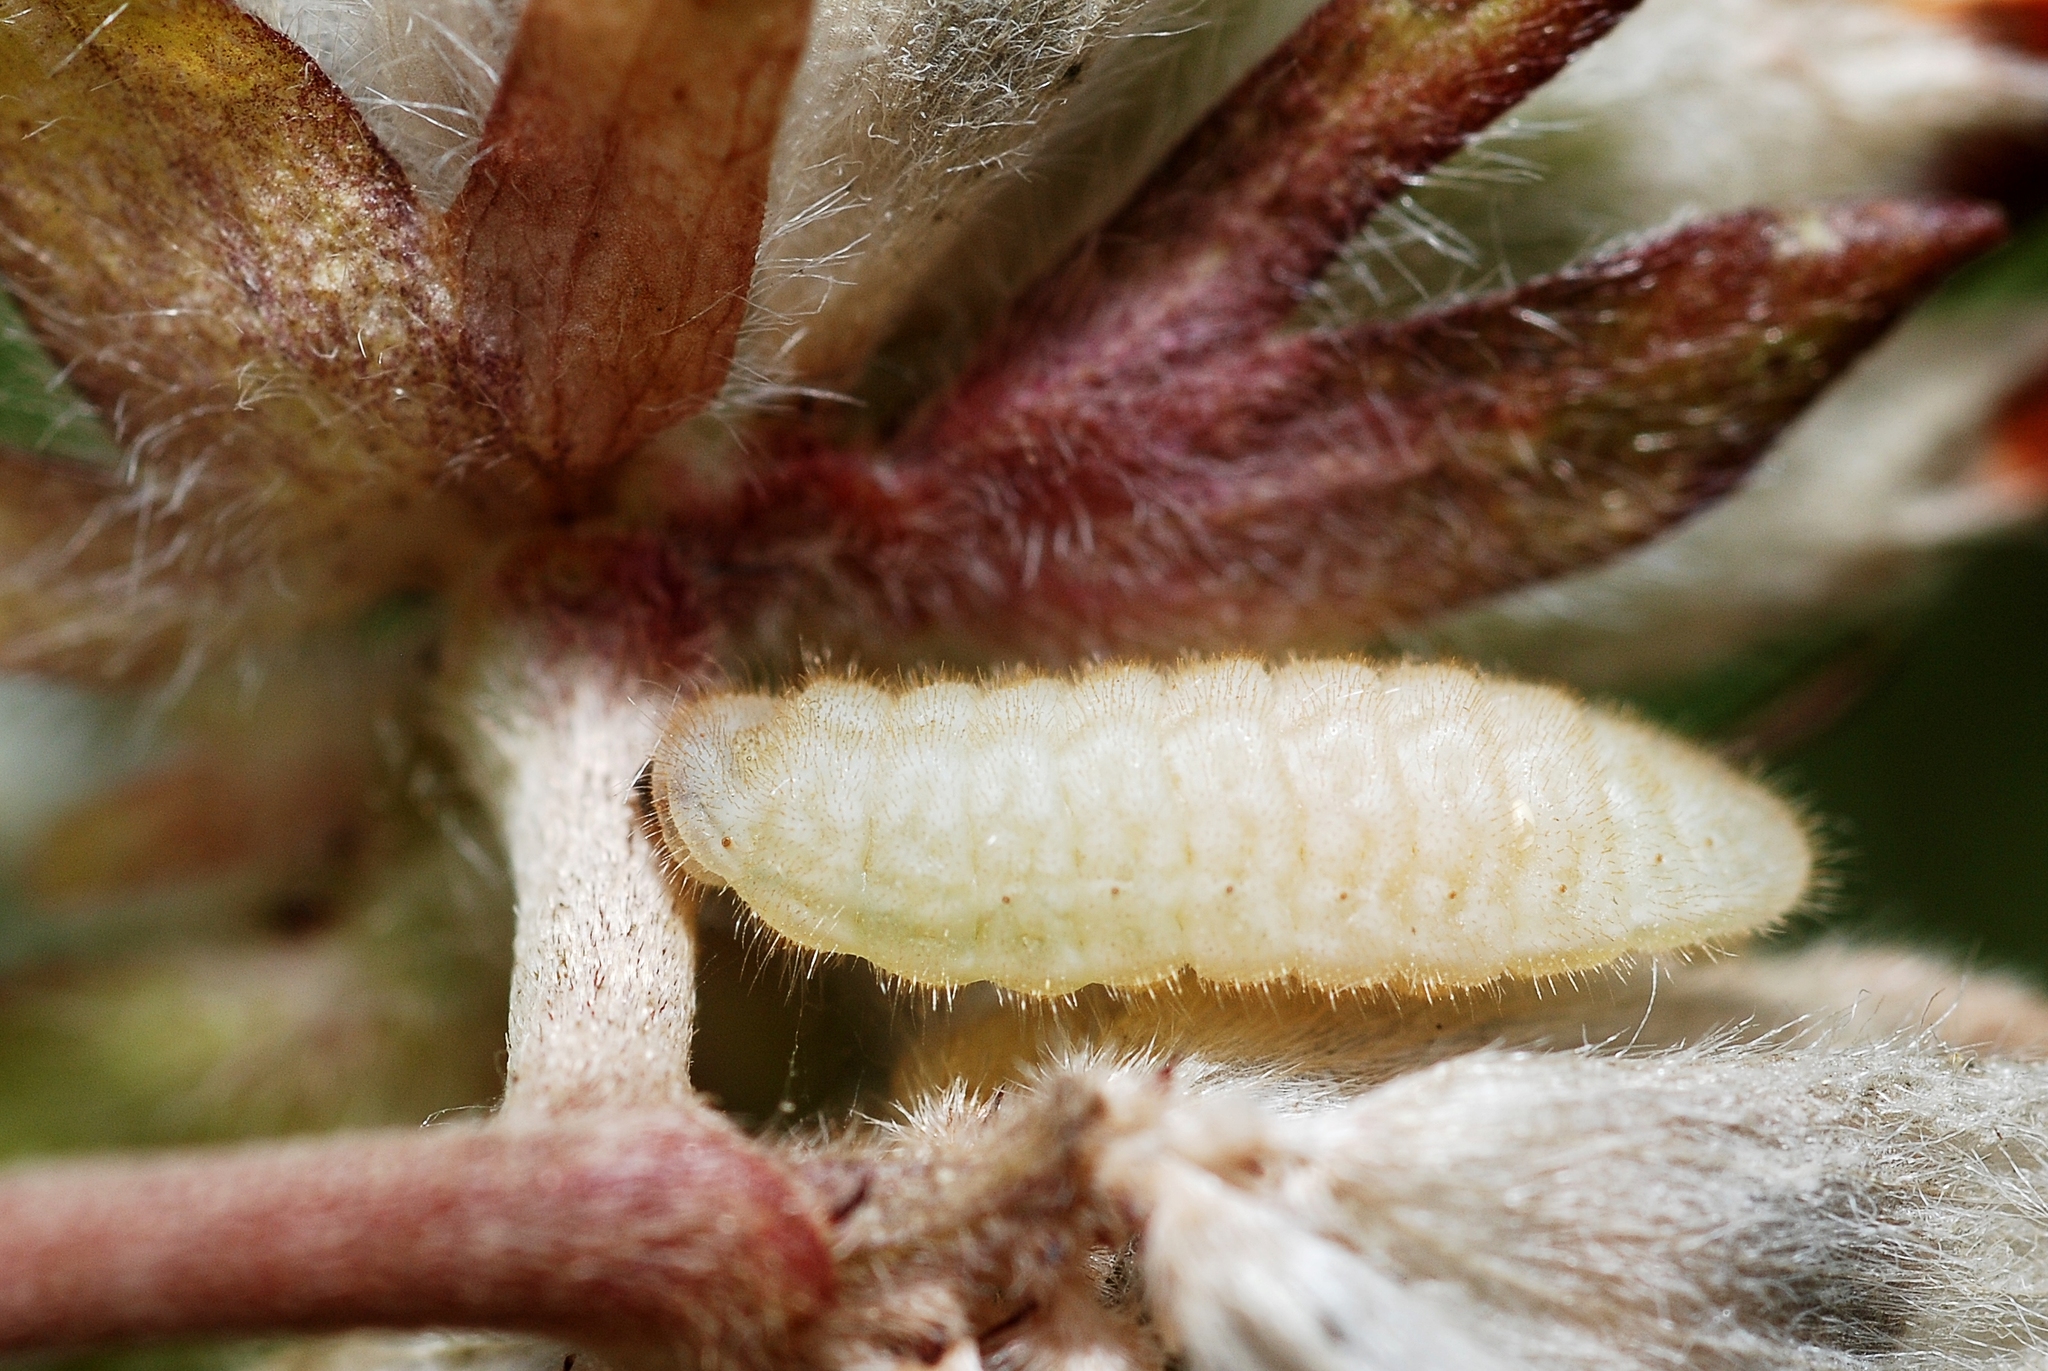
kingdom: Animalia
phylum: Arthropoda
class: Insecta
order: Lepidoptera
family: Lycaenidae
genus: Cupido
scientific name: Cupido minimus
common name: Small blue
